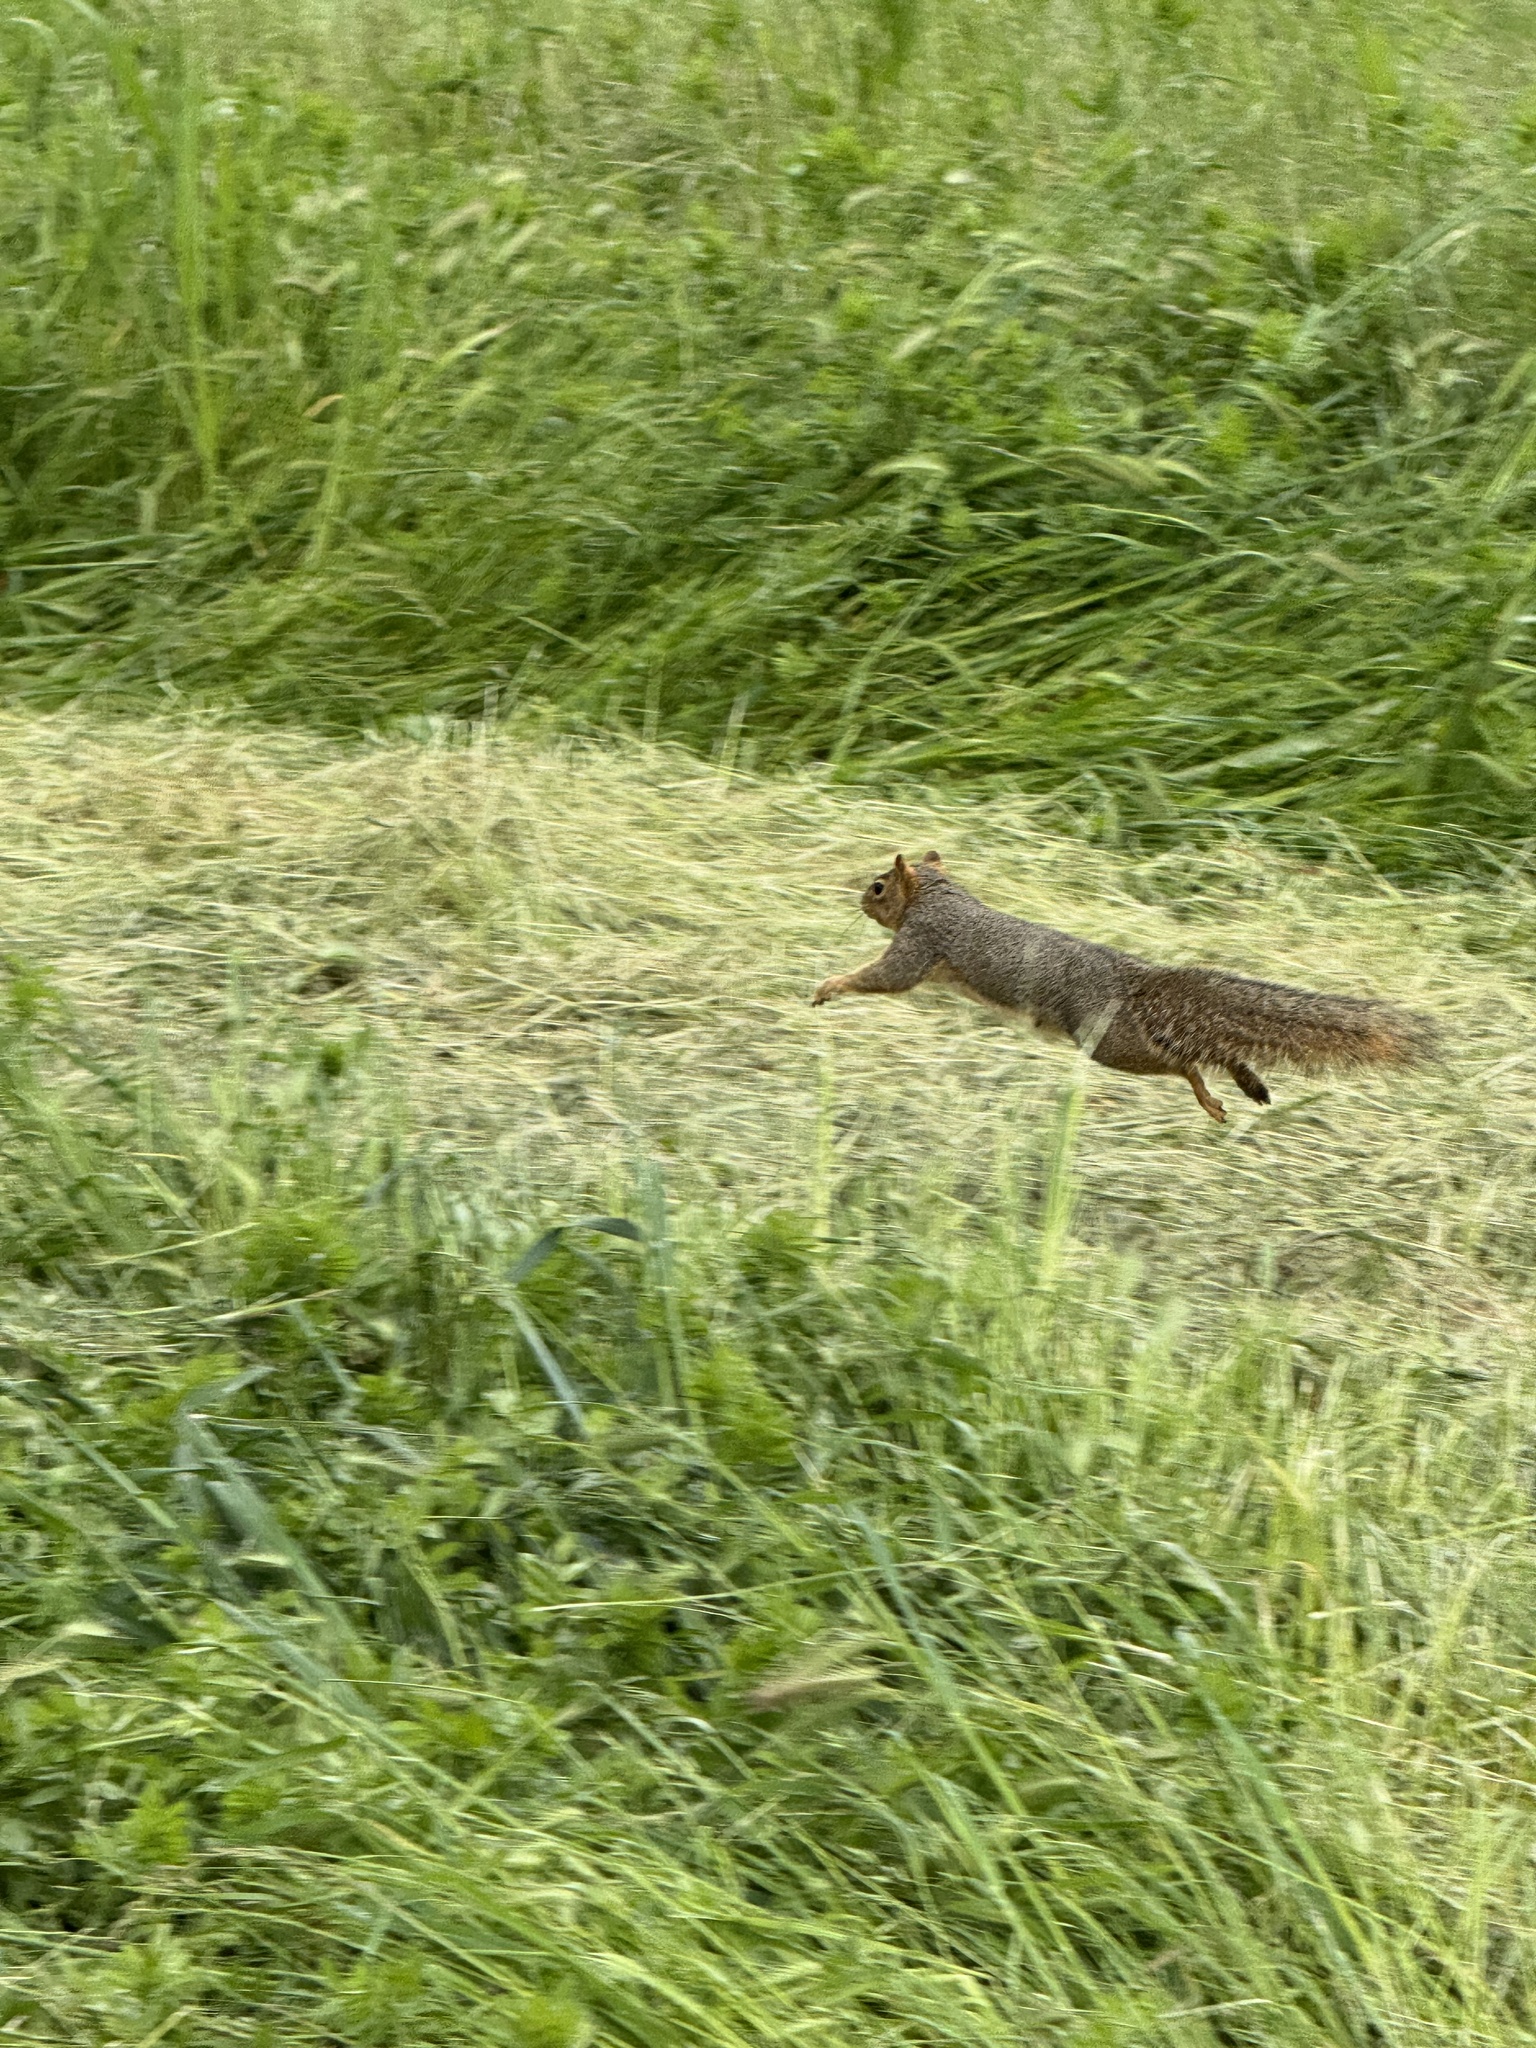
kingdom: Animalia
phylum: Chordata
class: Mammalia
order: Rodentia
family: Sciuridae
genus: Sciurus
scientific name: Sciurus niger
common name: Fox squirrel
